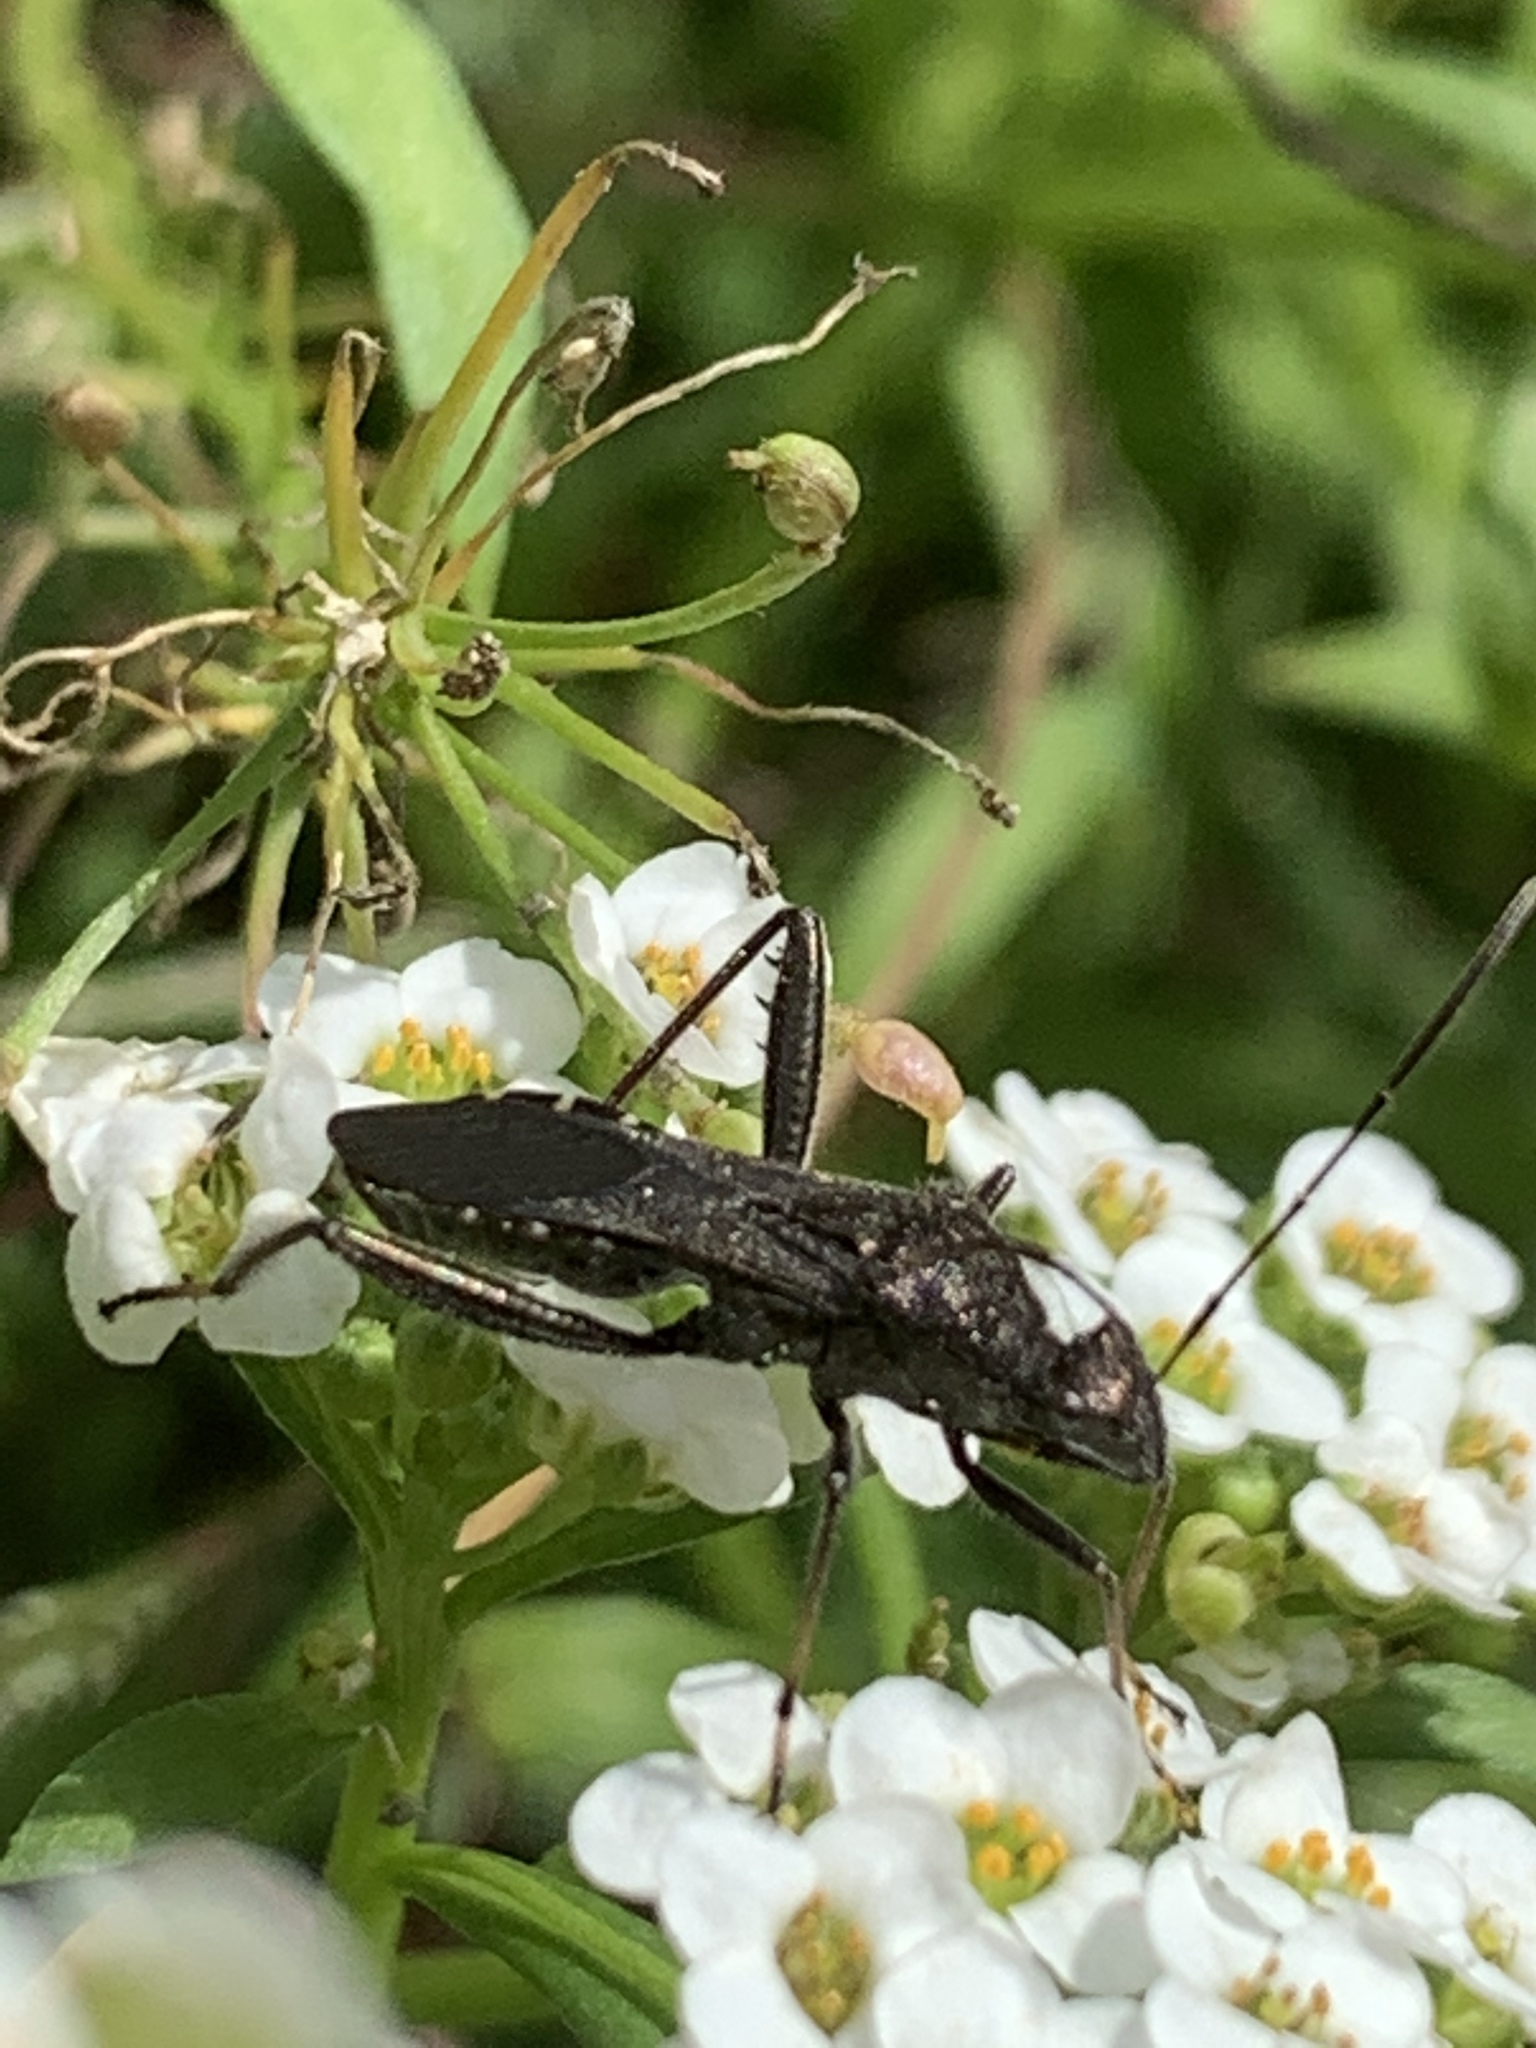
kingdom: Animalia
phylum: Arthropoda
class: Insecta
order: Hemiptera
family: Alydidae
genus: Alydus
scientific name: Alydus eurinus
